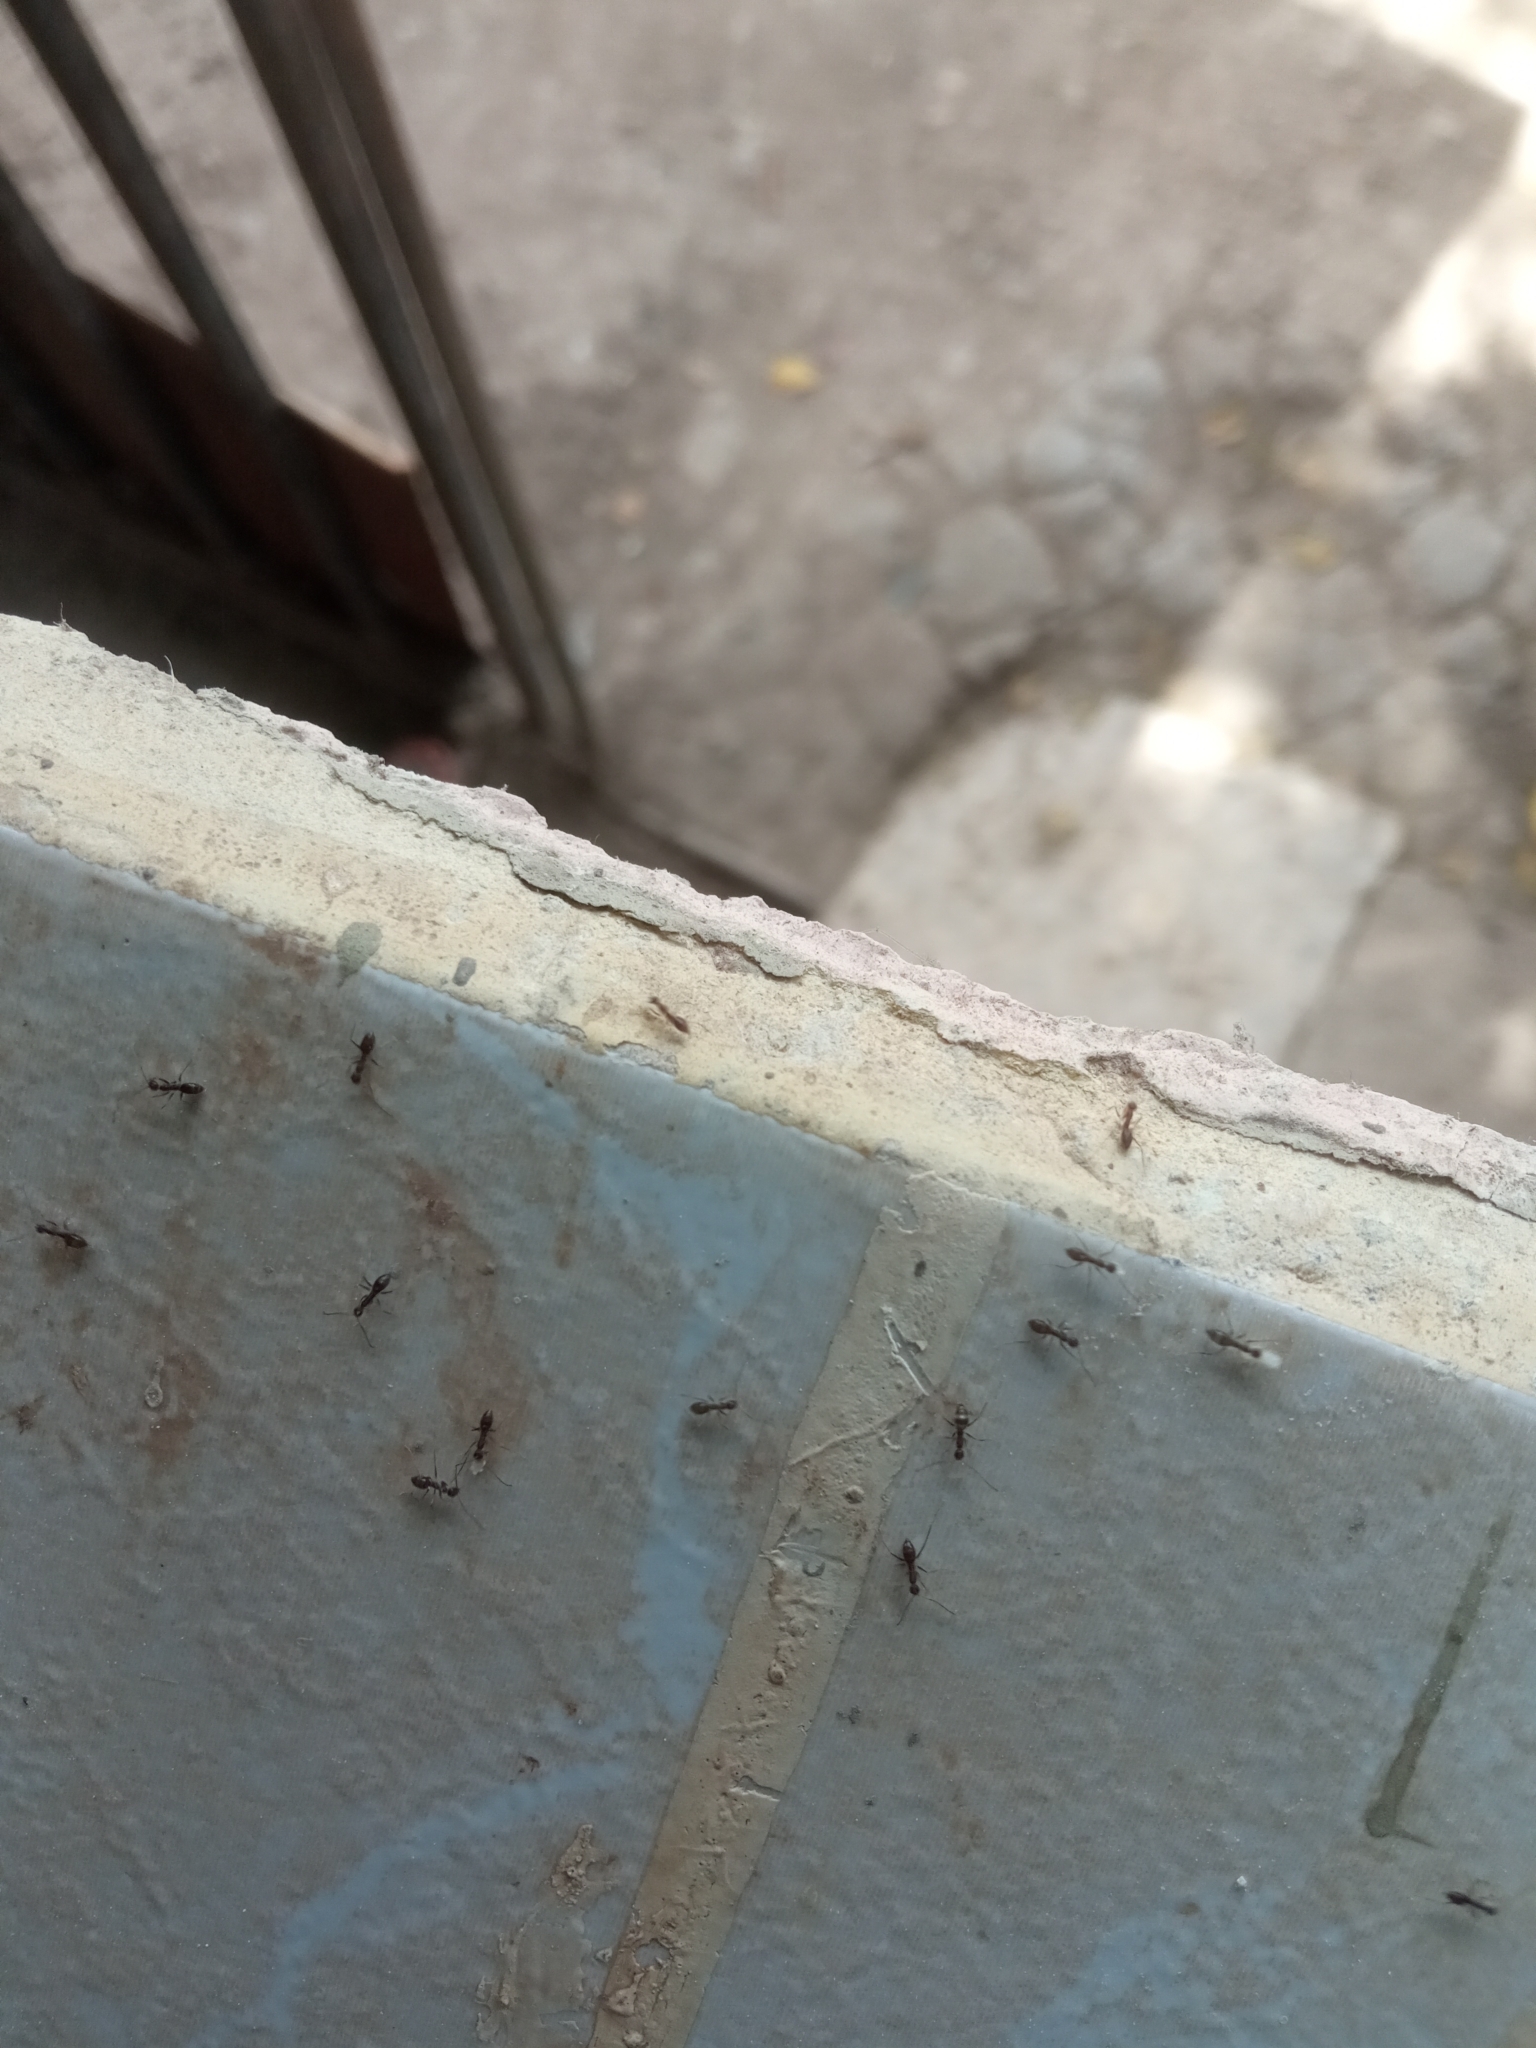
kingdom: Animalia
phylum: Arthropoda
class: Insecta
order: Hymenoptera
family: Formicidae
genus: Paratrechina
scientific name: Paratrechina longicornis
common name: Longhorned crazy ant
